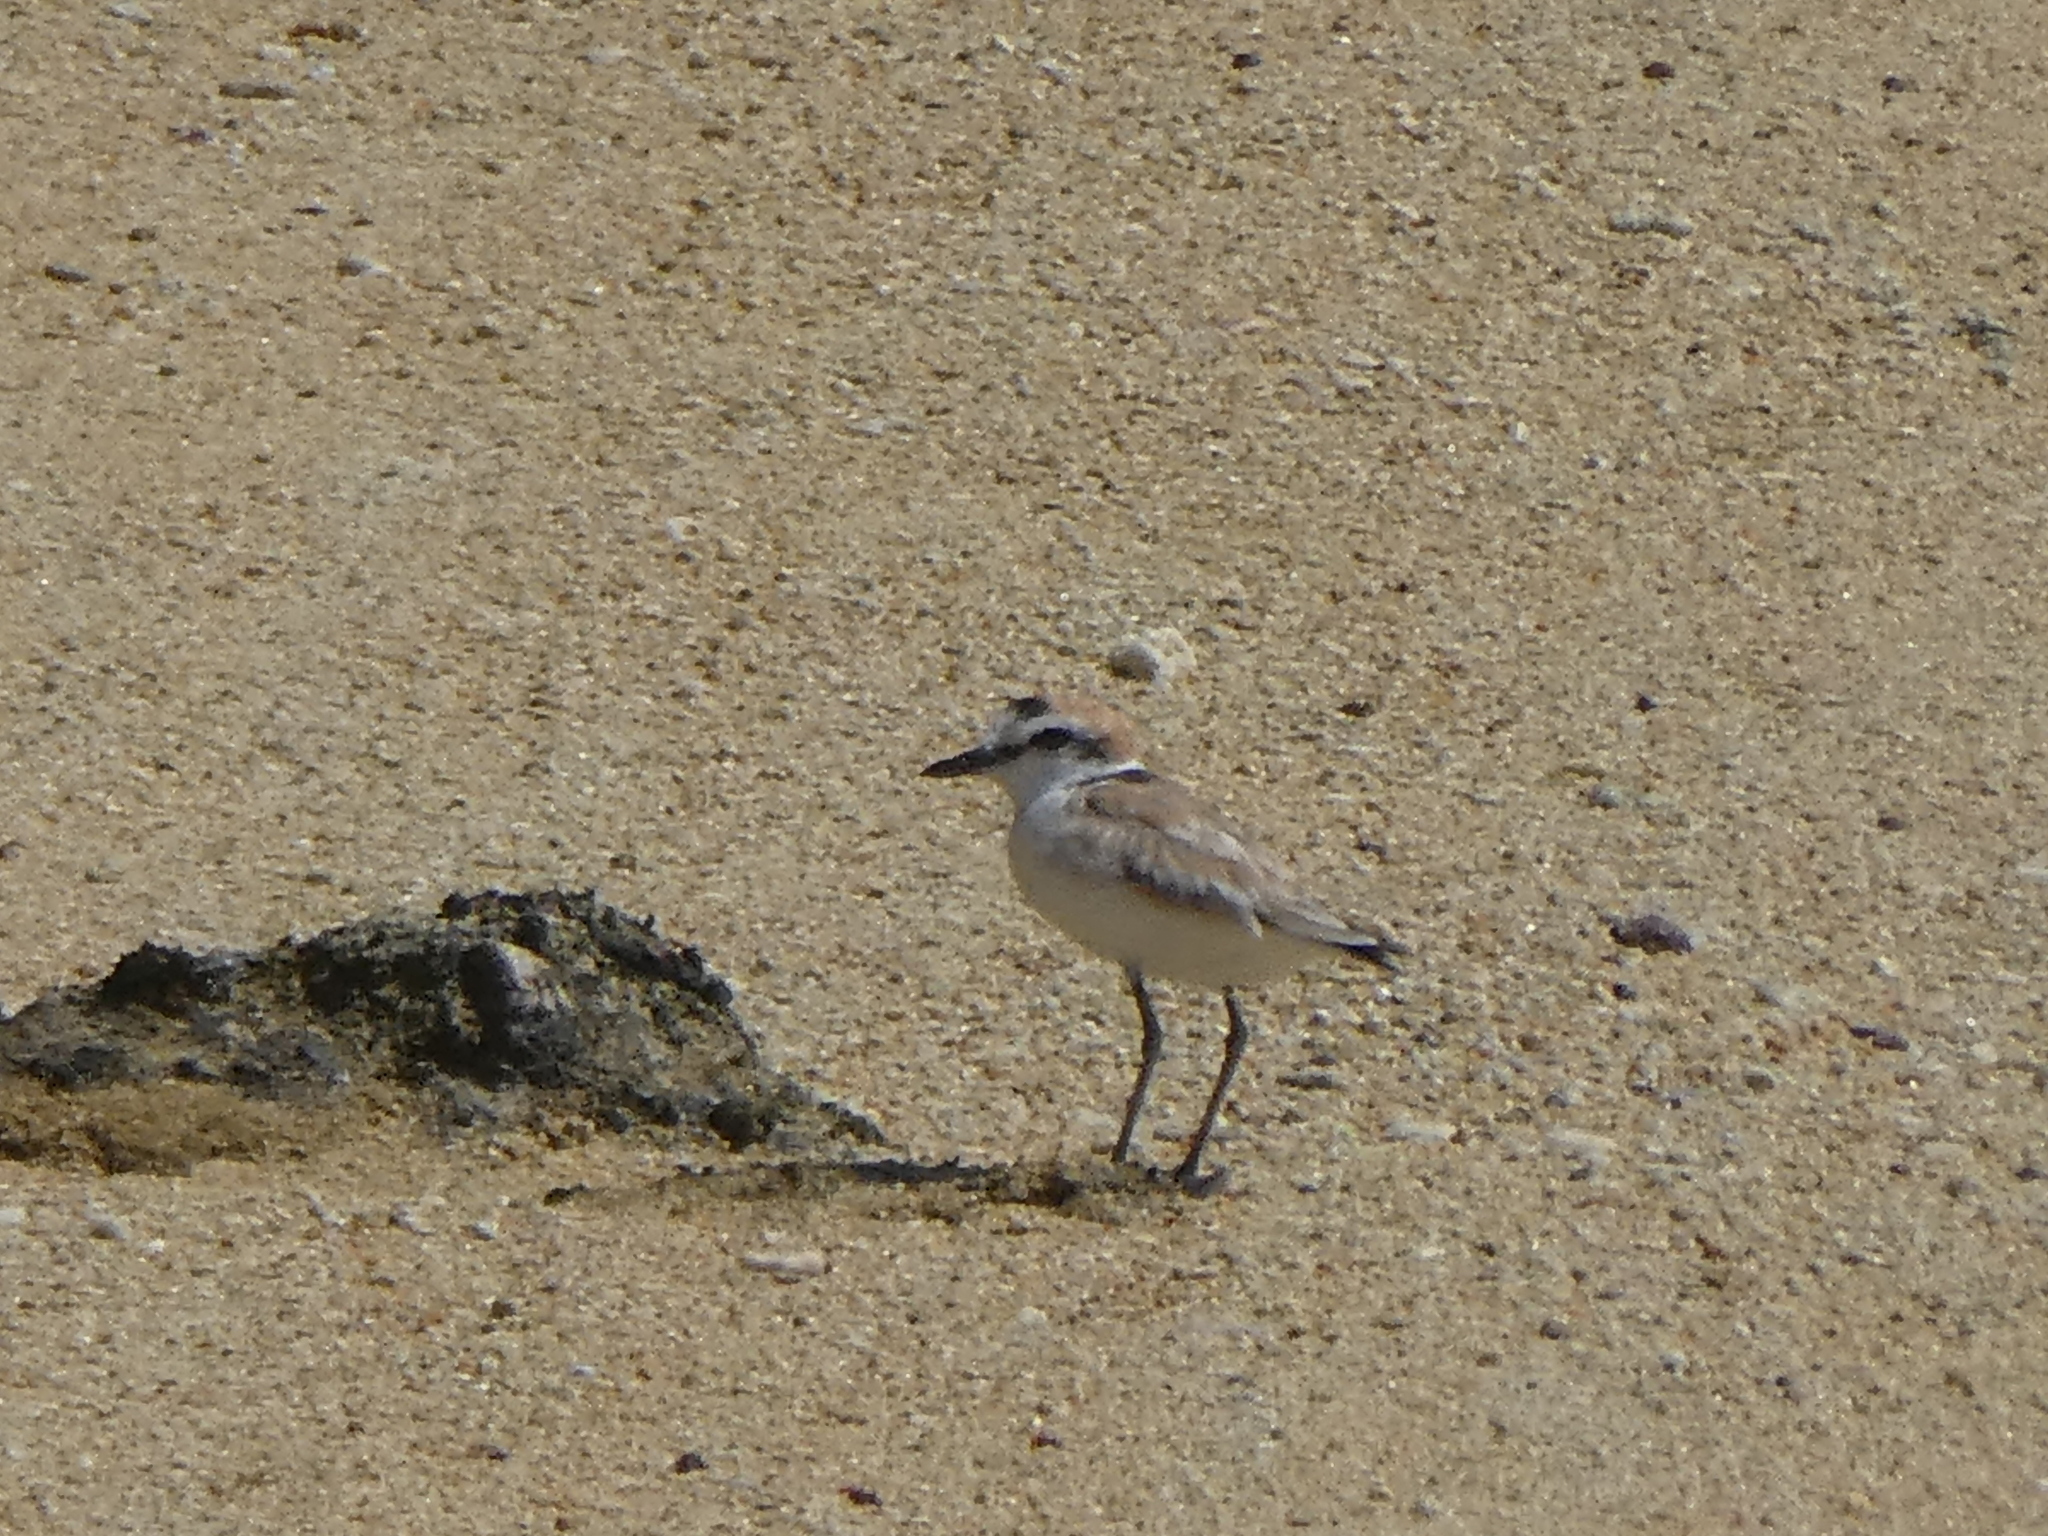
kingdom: Animalia
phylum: Chordata
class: Aves
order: Charadriiformes
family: Charadriidae
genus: Anarhynchus
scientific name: Anarhynchus
